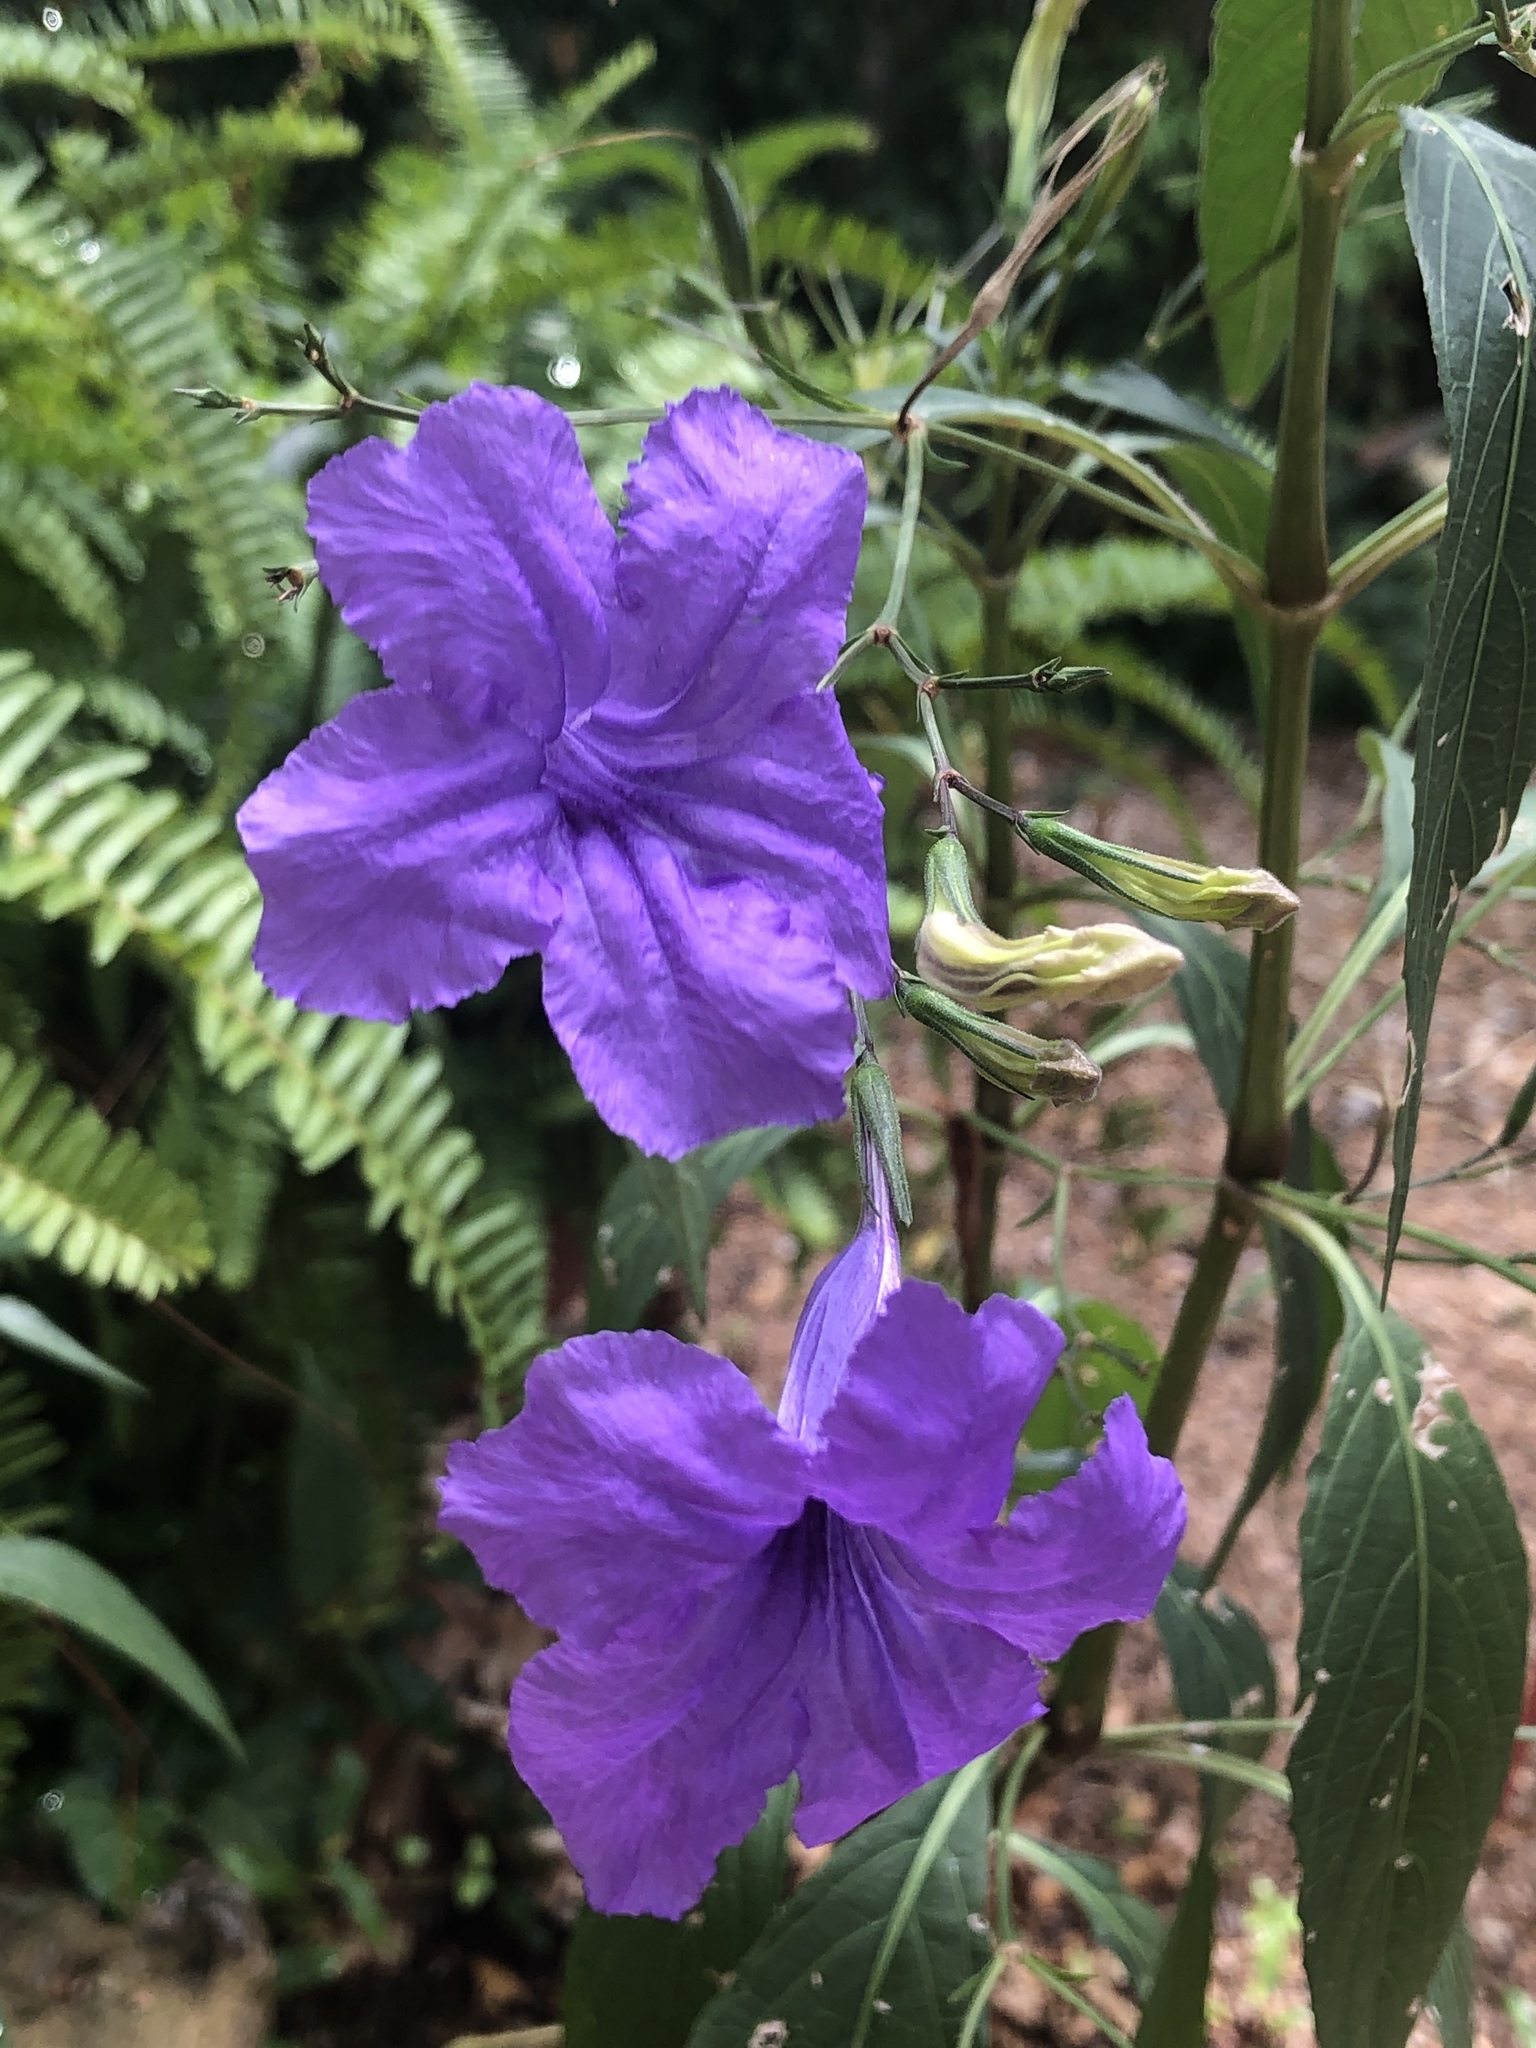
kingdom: Plantae
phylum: Tracheophyta
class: Magnoliopsida
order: Lamiales
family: Acanthaceae
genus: Ruellia
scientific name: Ruellia simplex
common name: Softseed wild petunia
